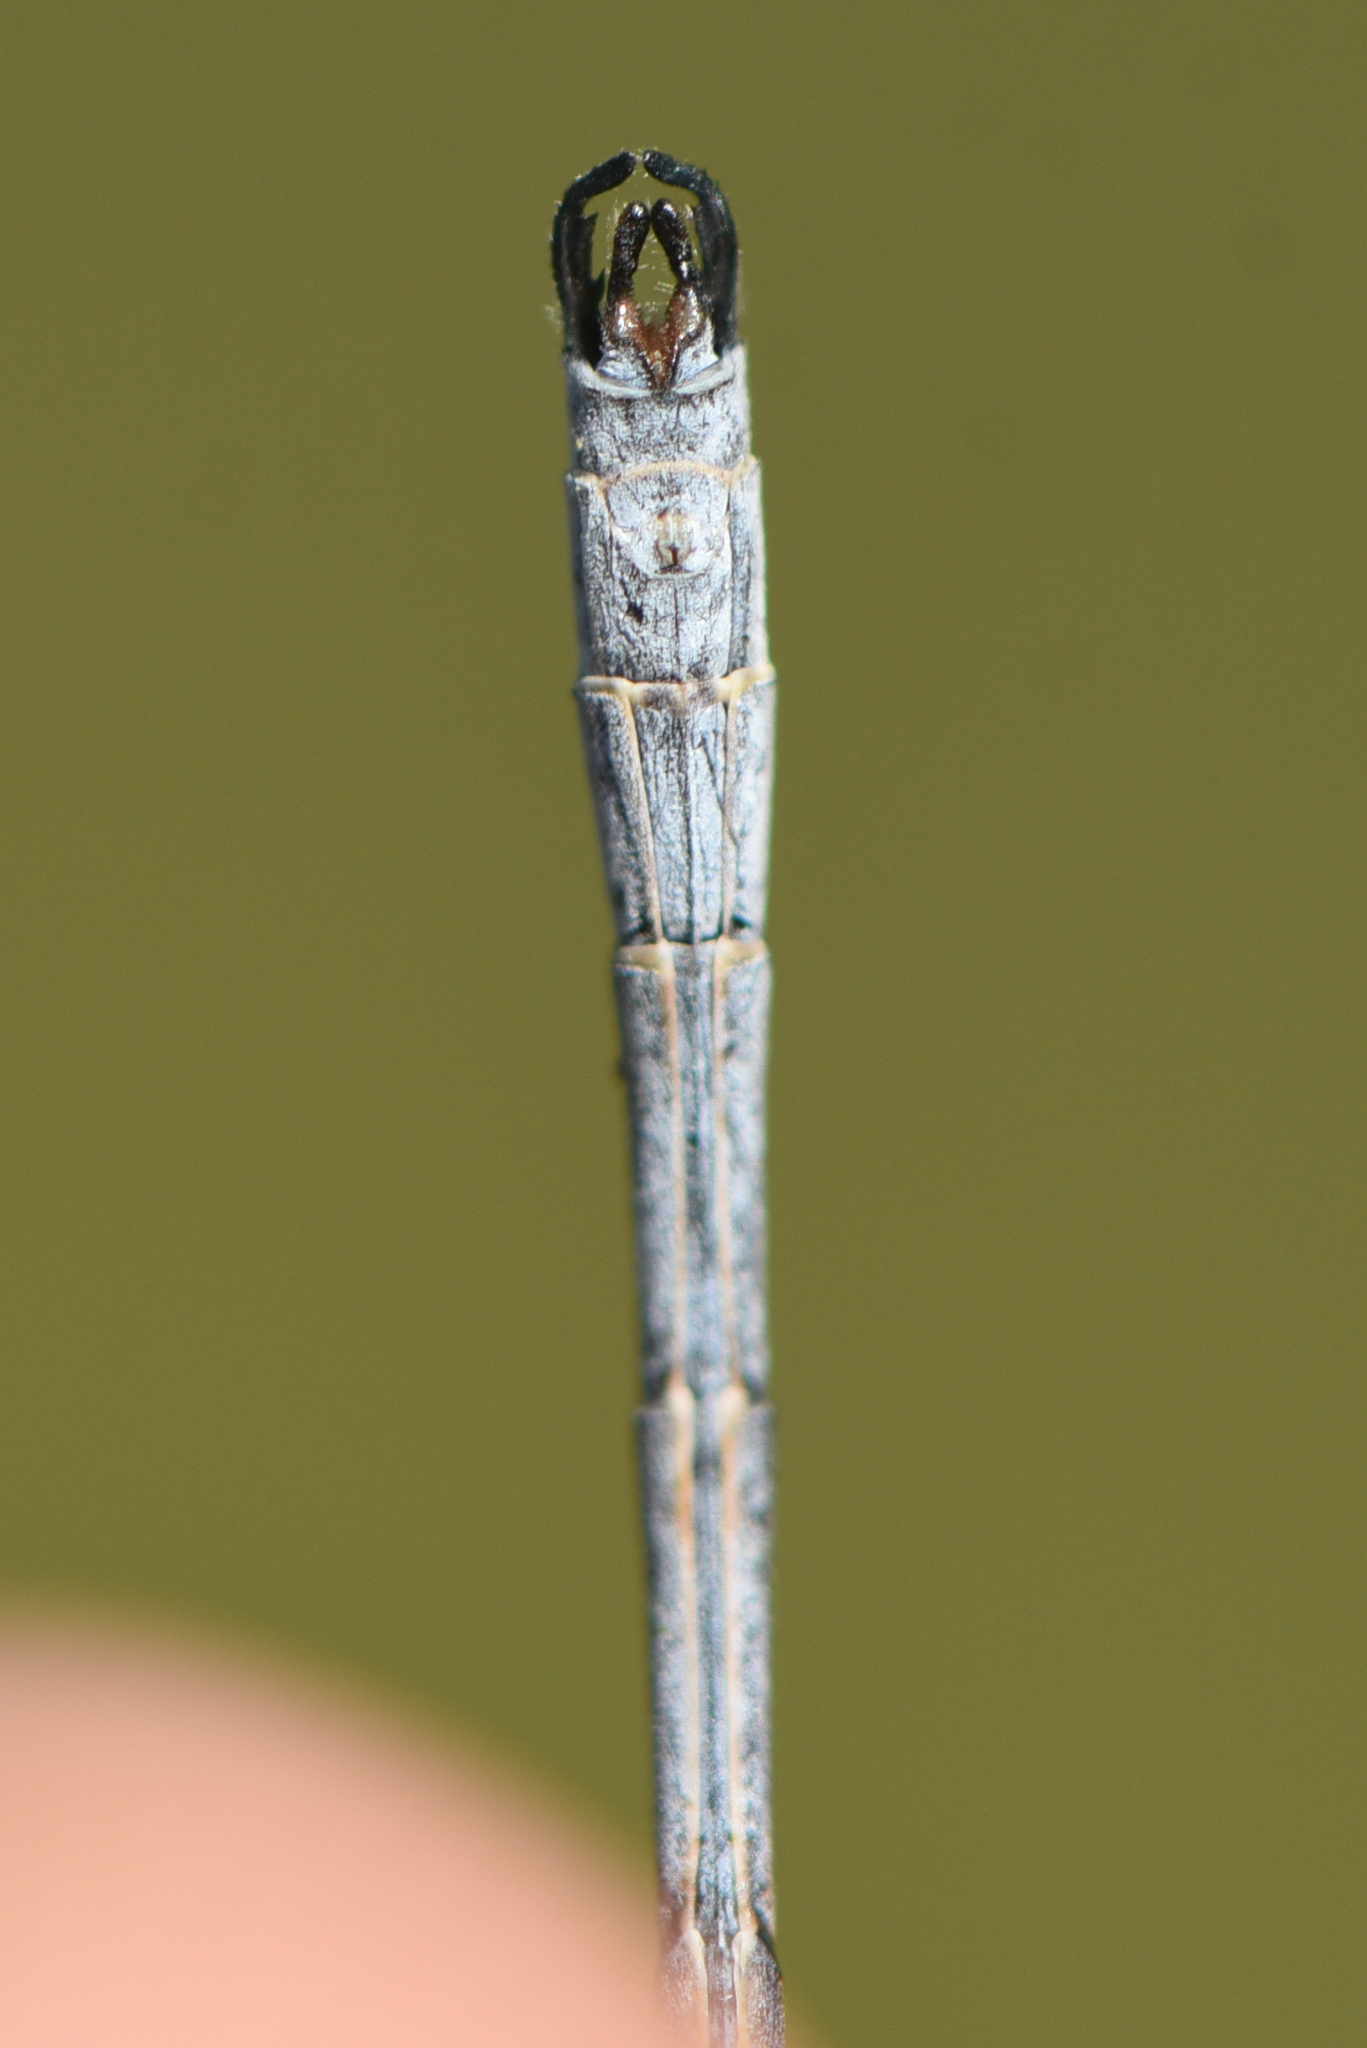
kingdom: Animalia
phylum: Arthropoda
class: Insecta
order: Odonata
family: Lestidae
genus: Lestes
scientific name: Lestes disjunctus
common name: Northern spreadwing
